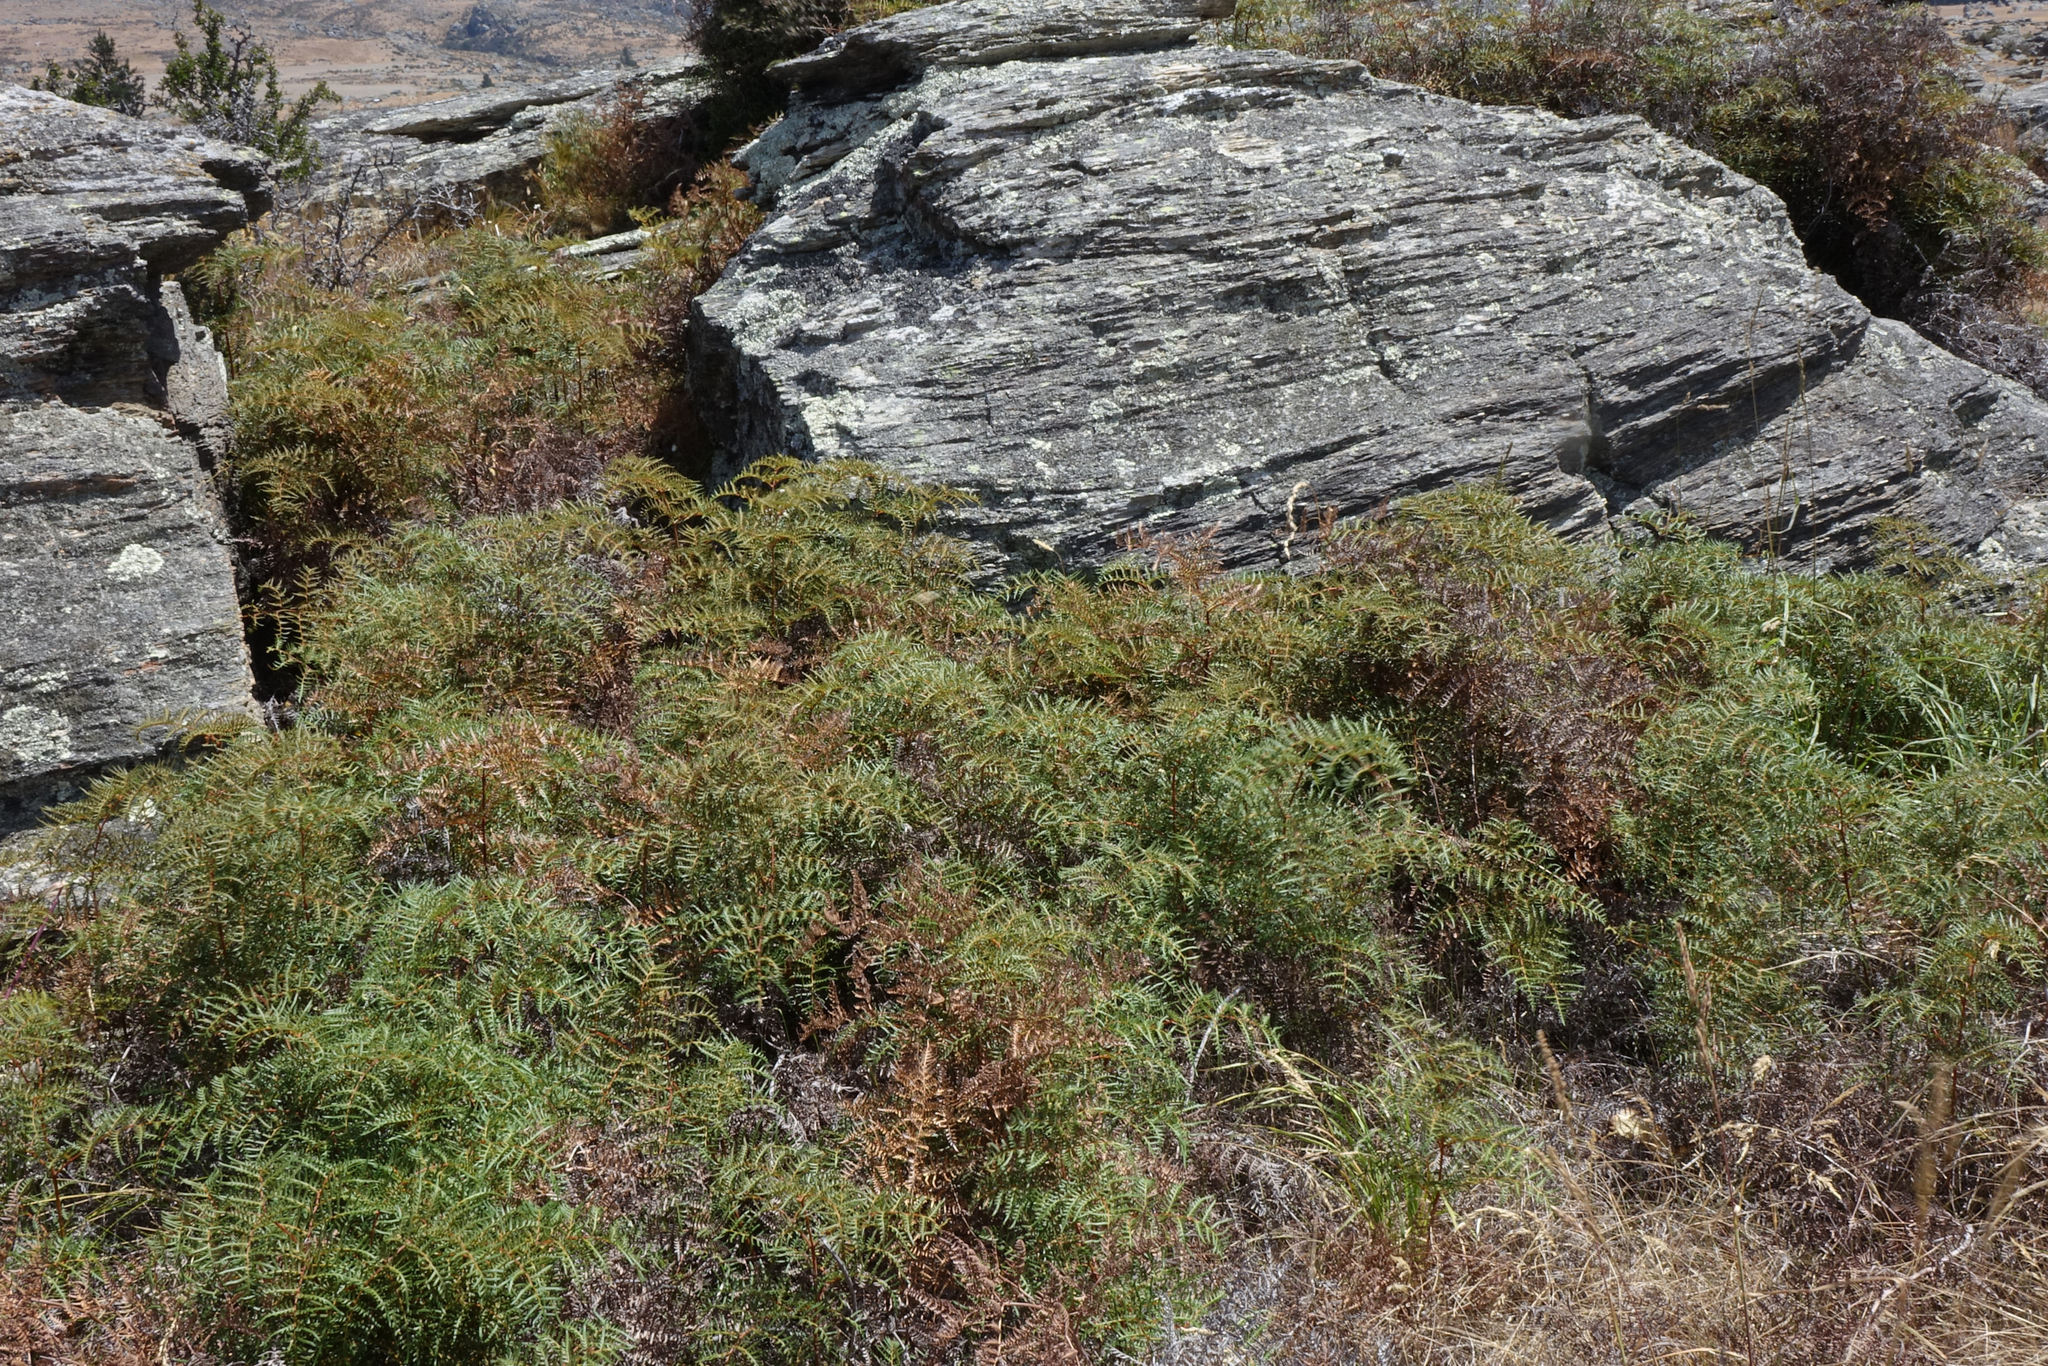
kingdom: Plantae
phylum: Tracheophyta
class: Polypodiopsida
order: Polypodiales
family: Dennstaedtiaceae
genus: Pteridium
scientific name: Pteridium esculentum
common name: Bracken fern
